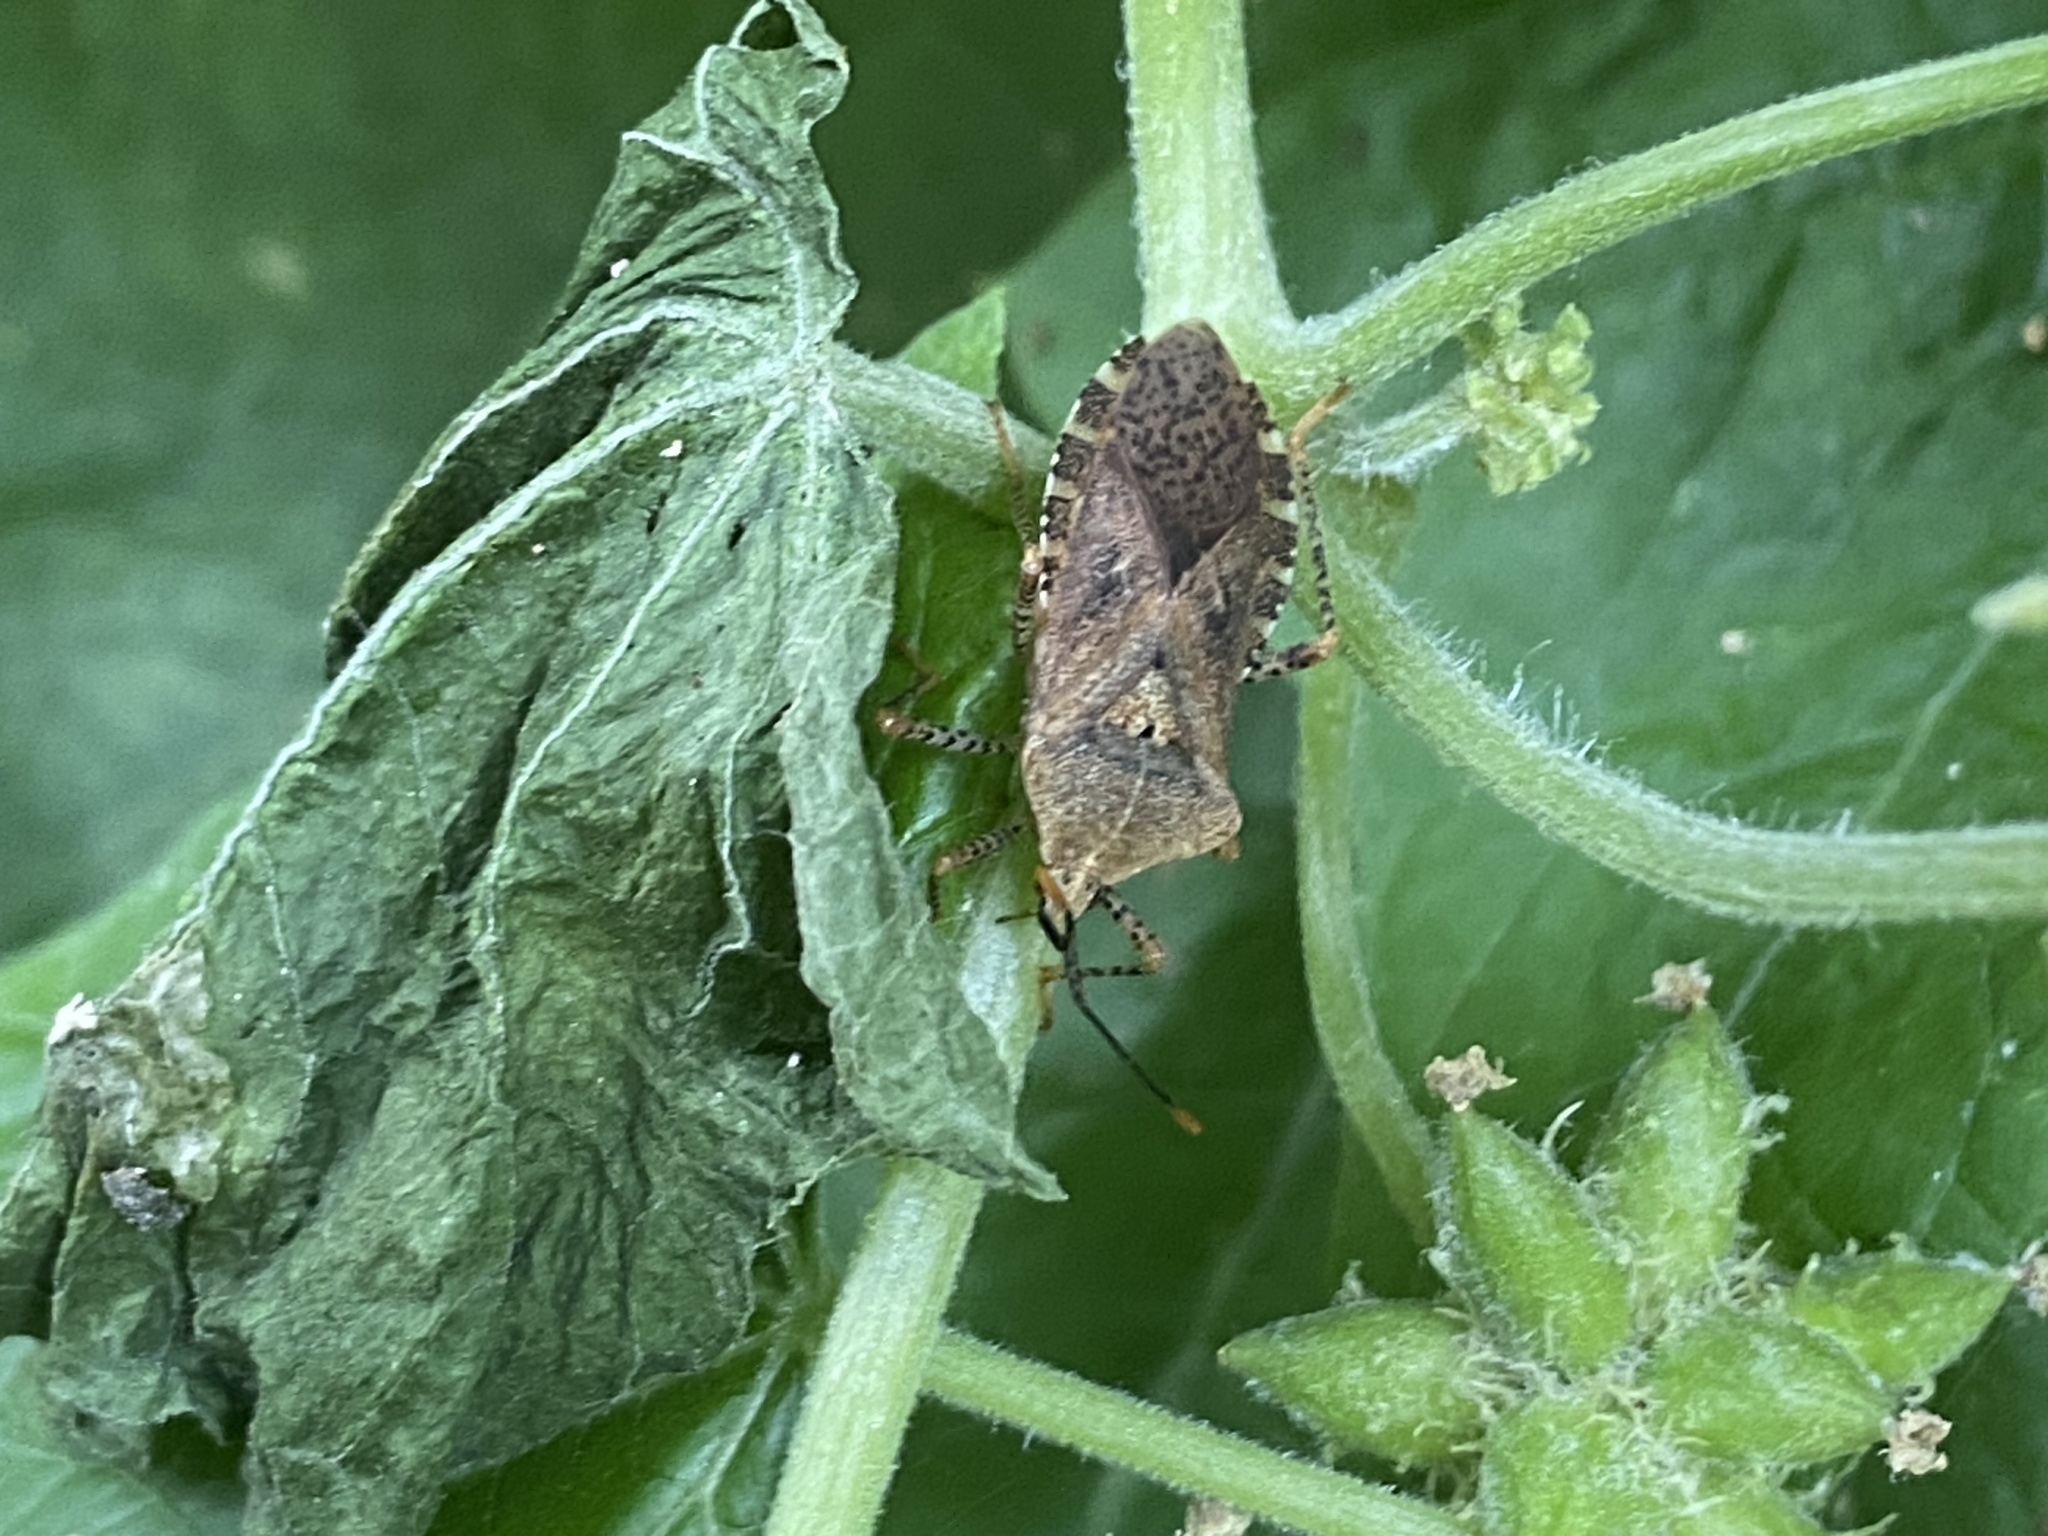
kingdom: Animalia
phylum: Arthropoda
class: Insecta
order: Hemiptera
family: Coreidae
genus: Anasa
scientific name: Anasa repetita
